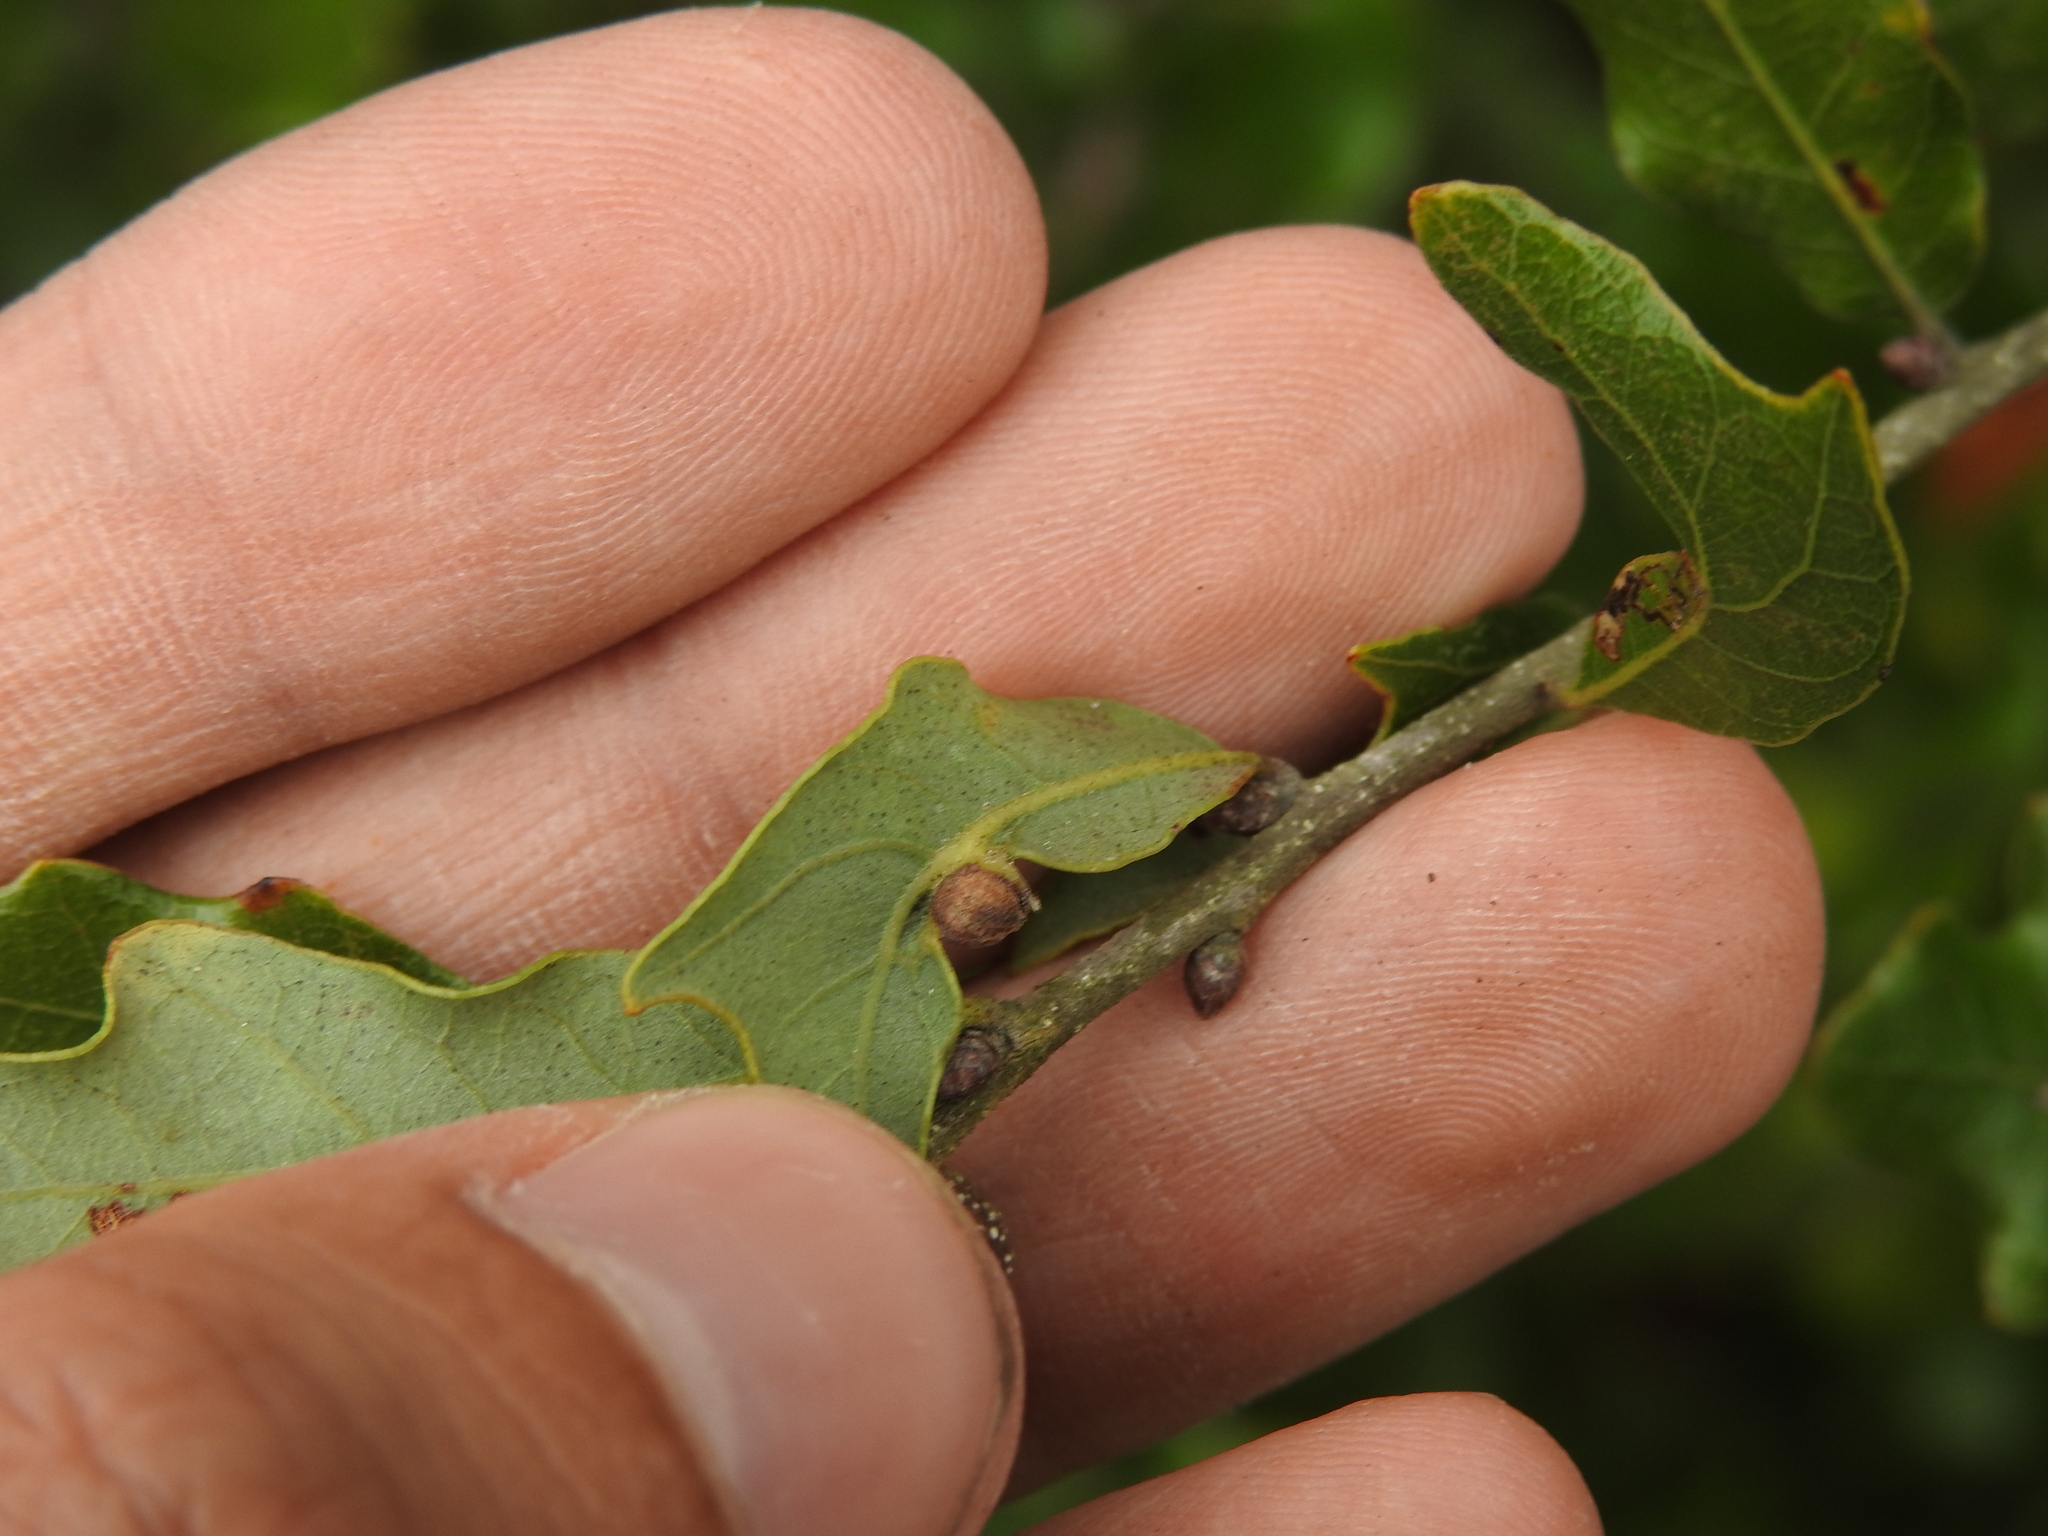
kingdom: Animalia
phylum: Arthropoda
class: Insecta
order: Hymenoptera
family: Cynipidae
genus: Andricus
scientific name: Andricus
